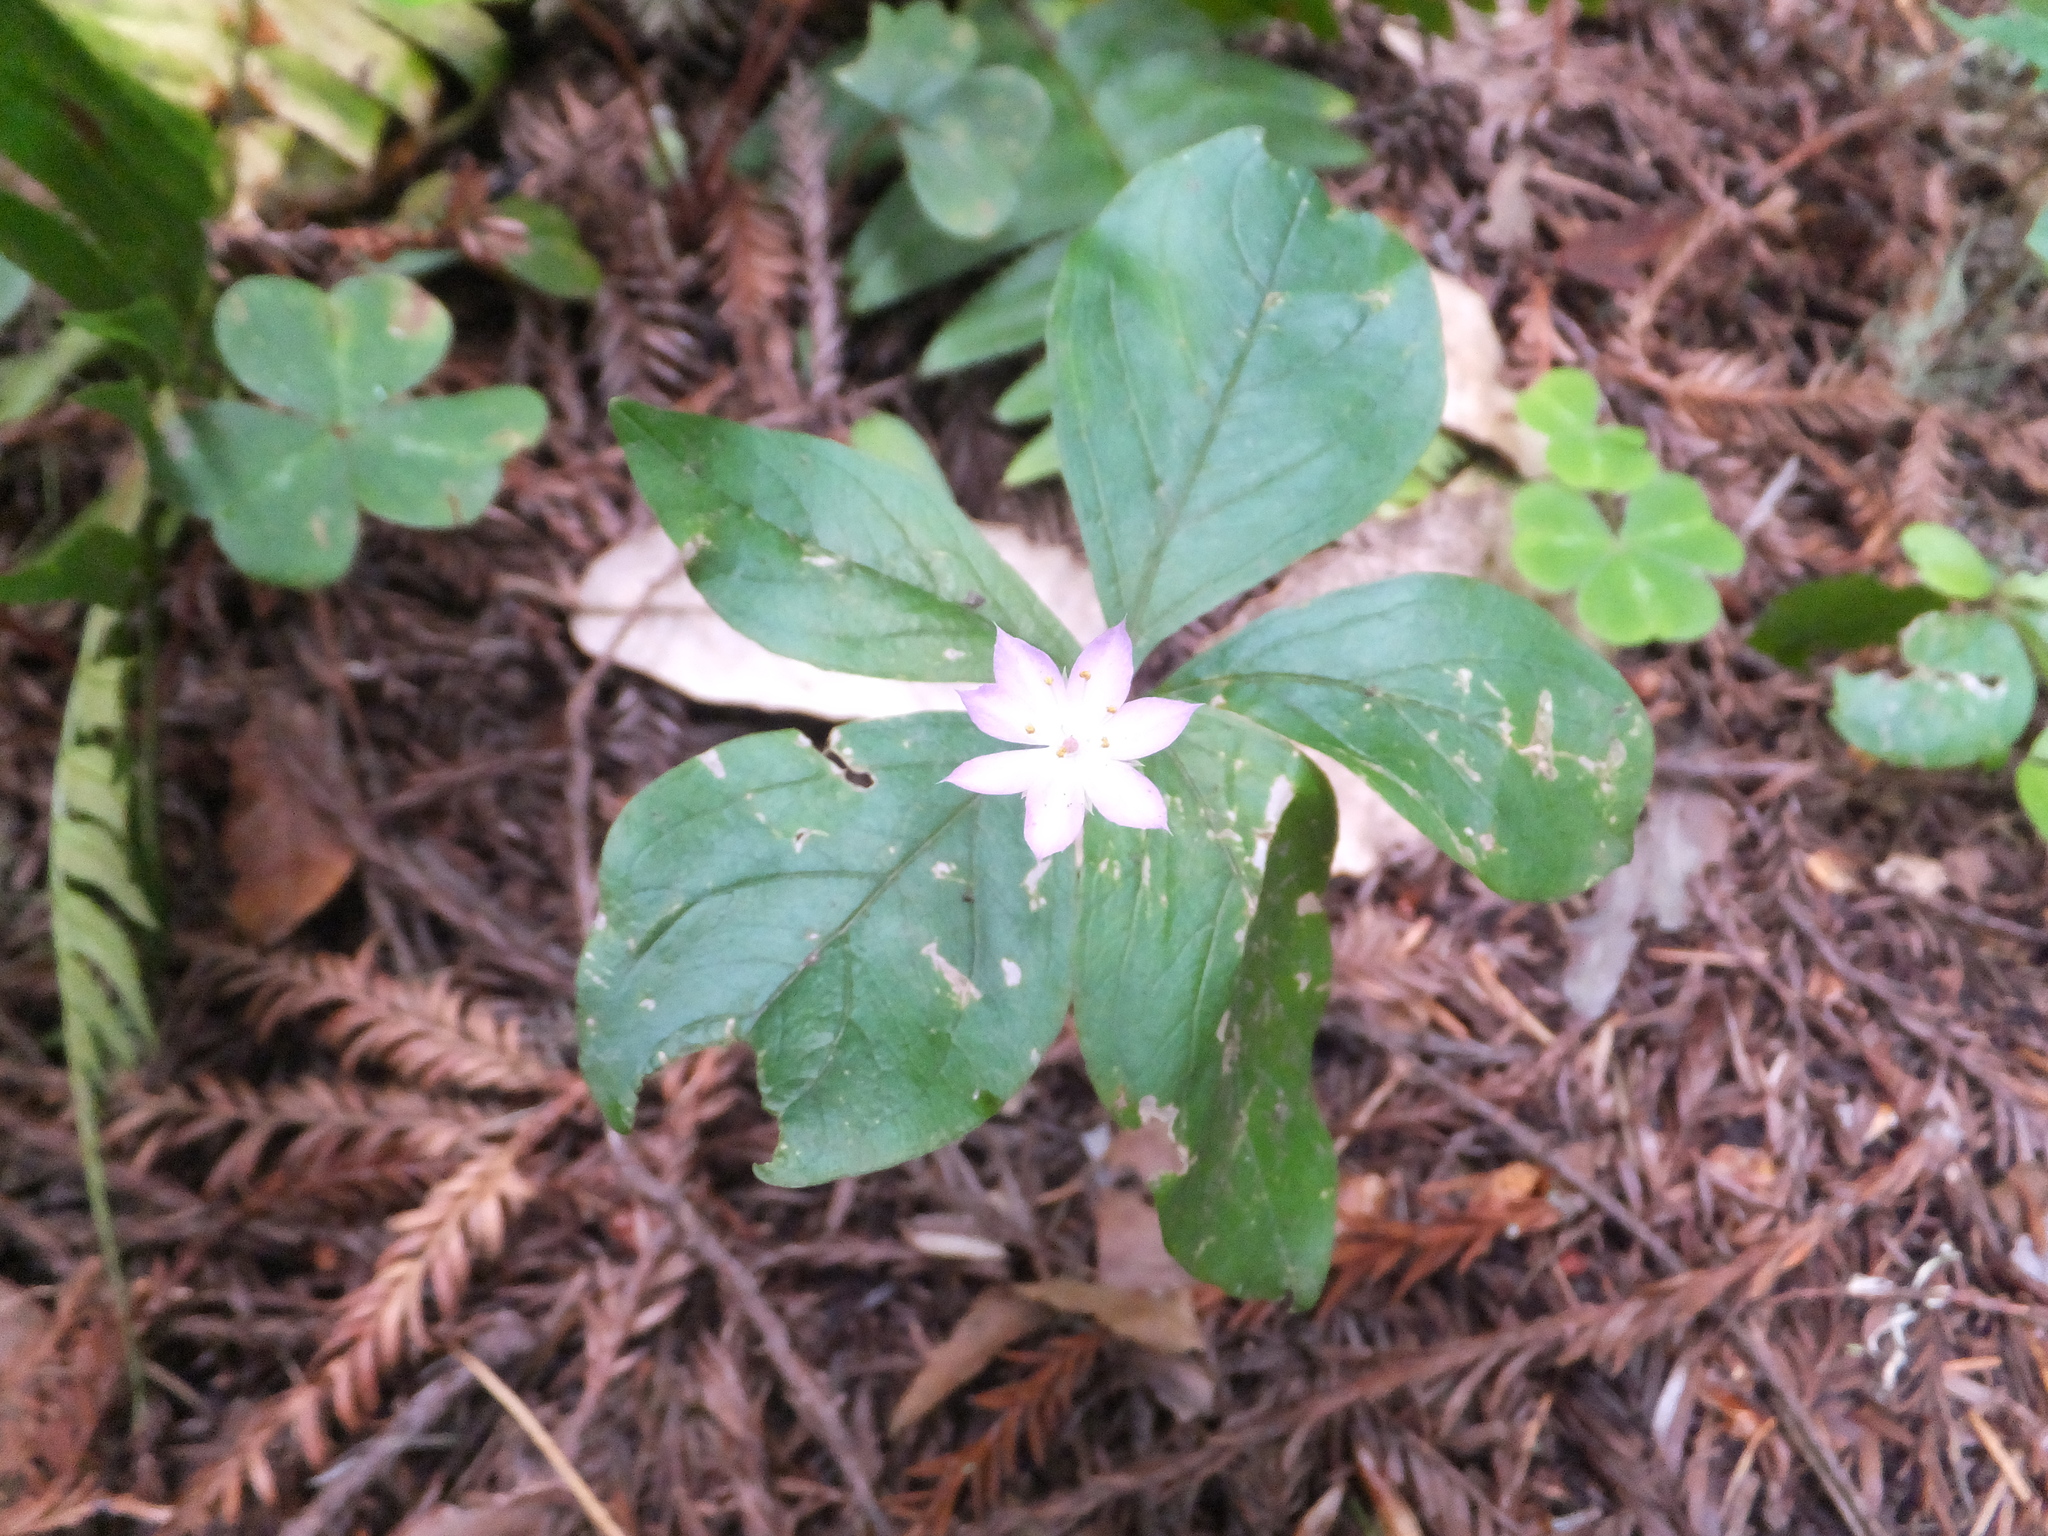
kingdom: Plantae
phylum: Tracheophyta
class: Magnoliopsida
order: Ericales
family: Primulaceae
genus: Lysimachia
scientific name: Lysimachia latifolia
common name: Pacific starflower
